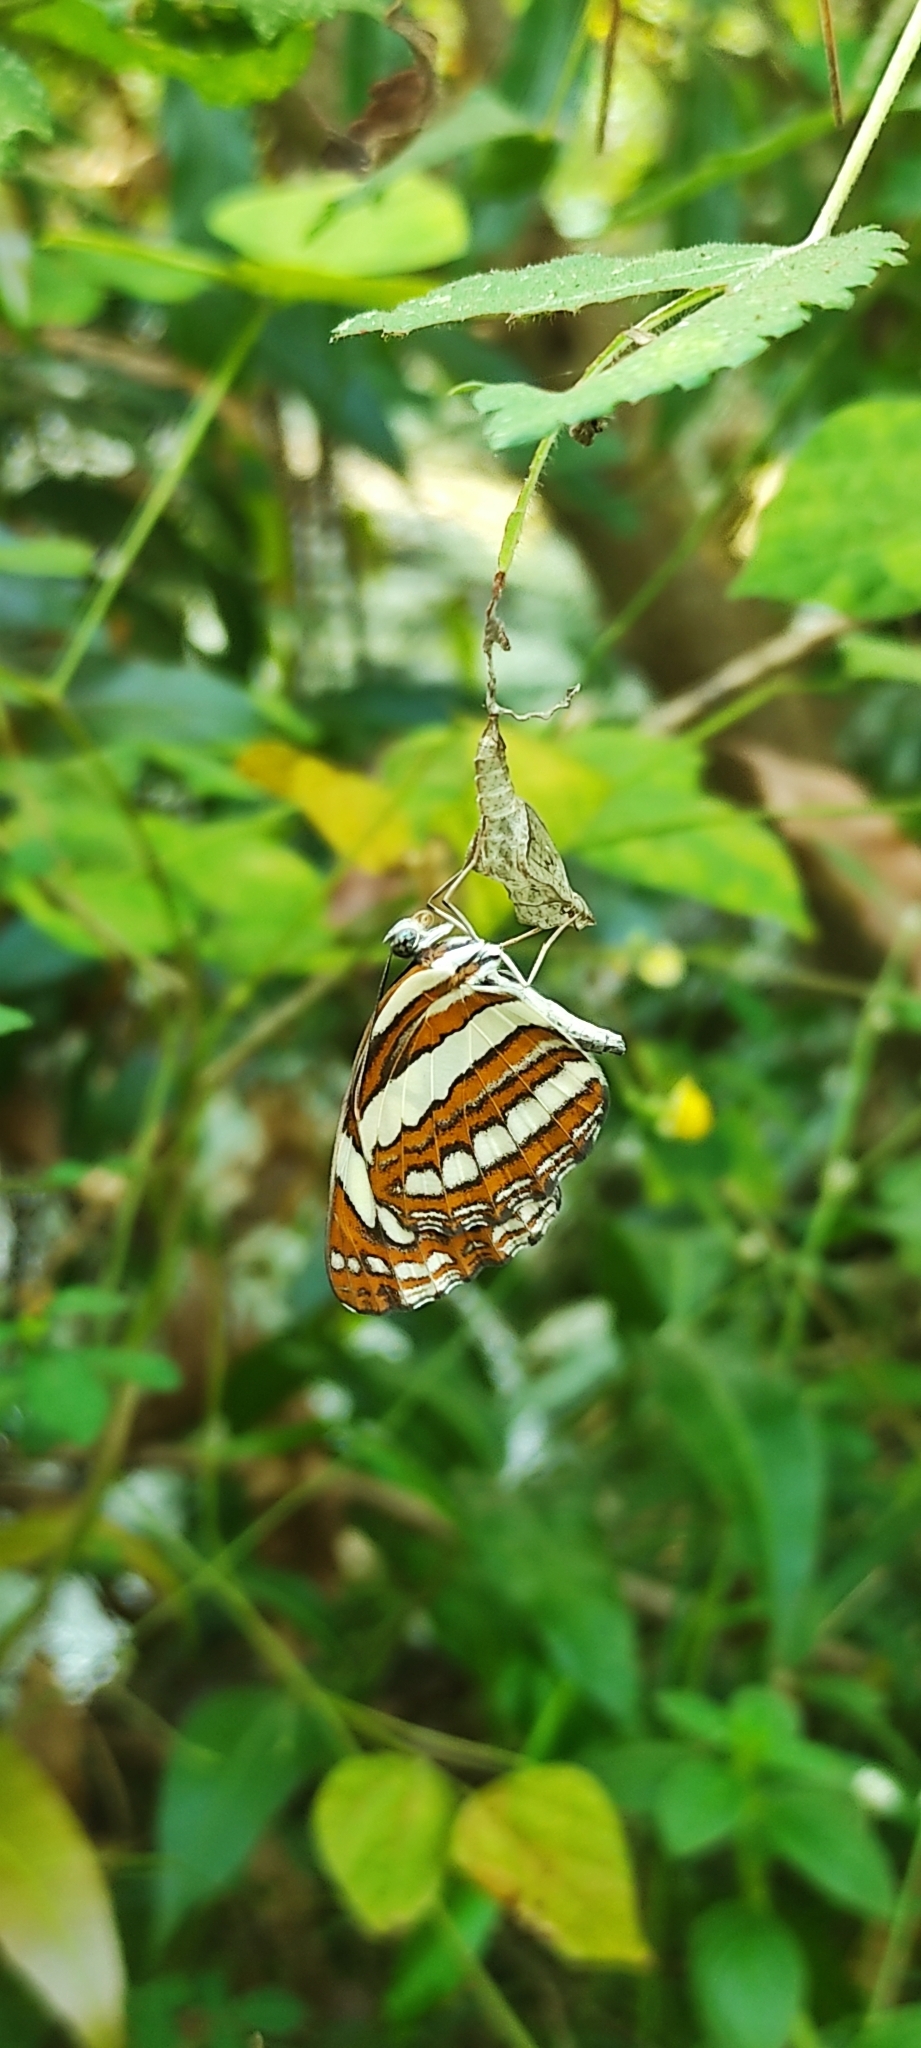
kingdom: Animalia
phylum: Arthropoda
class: Insecta
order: Lepidoptera
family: Nymphalidae
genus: Neptis
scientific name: Neptis hylas
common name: Common sailer
